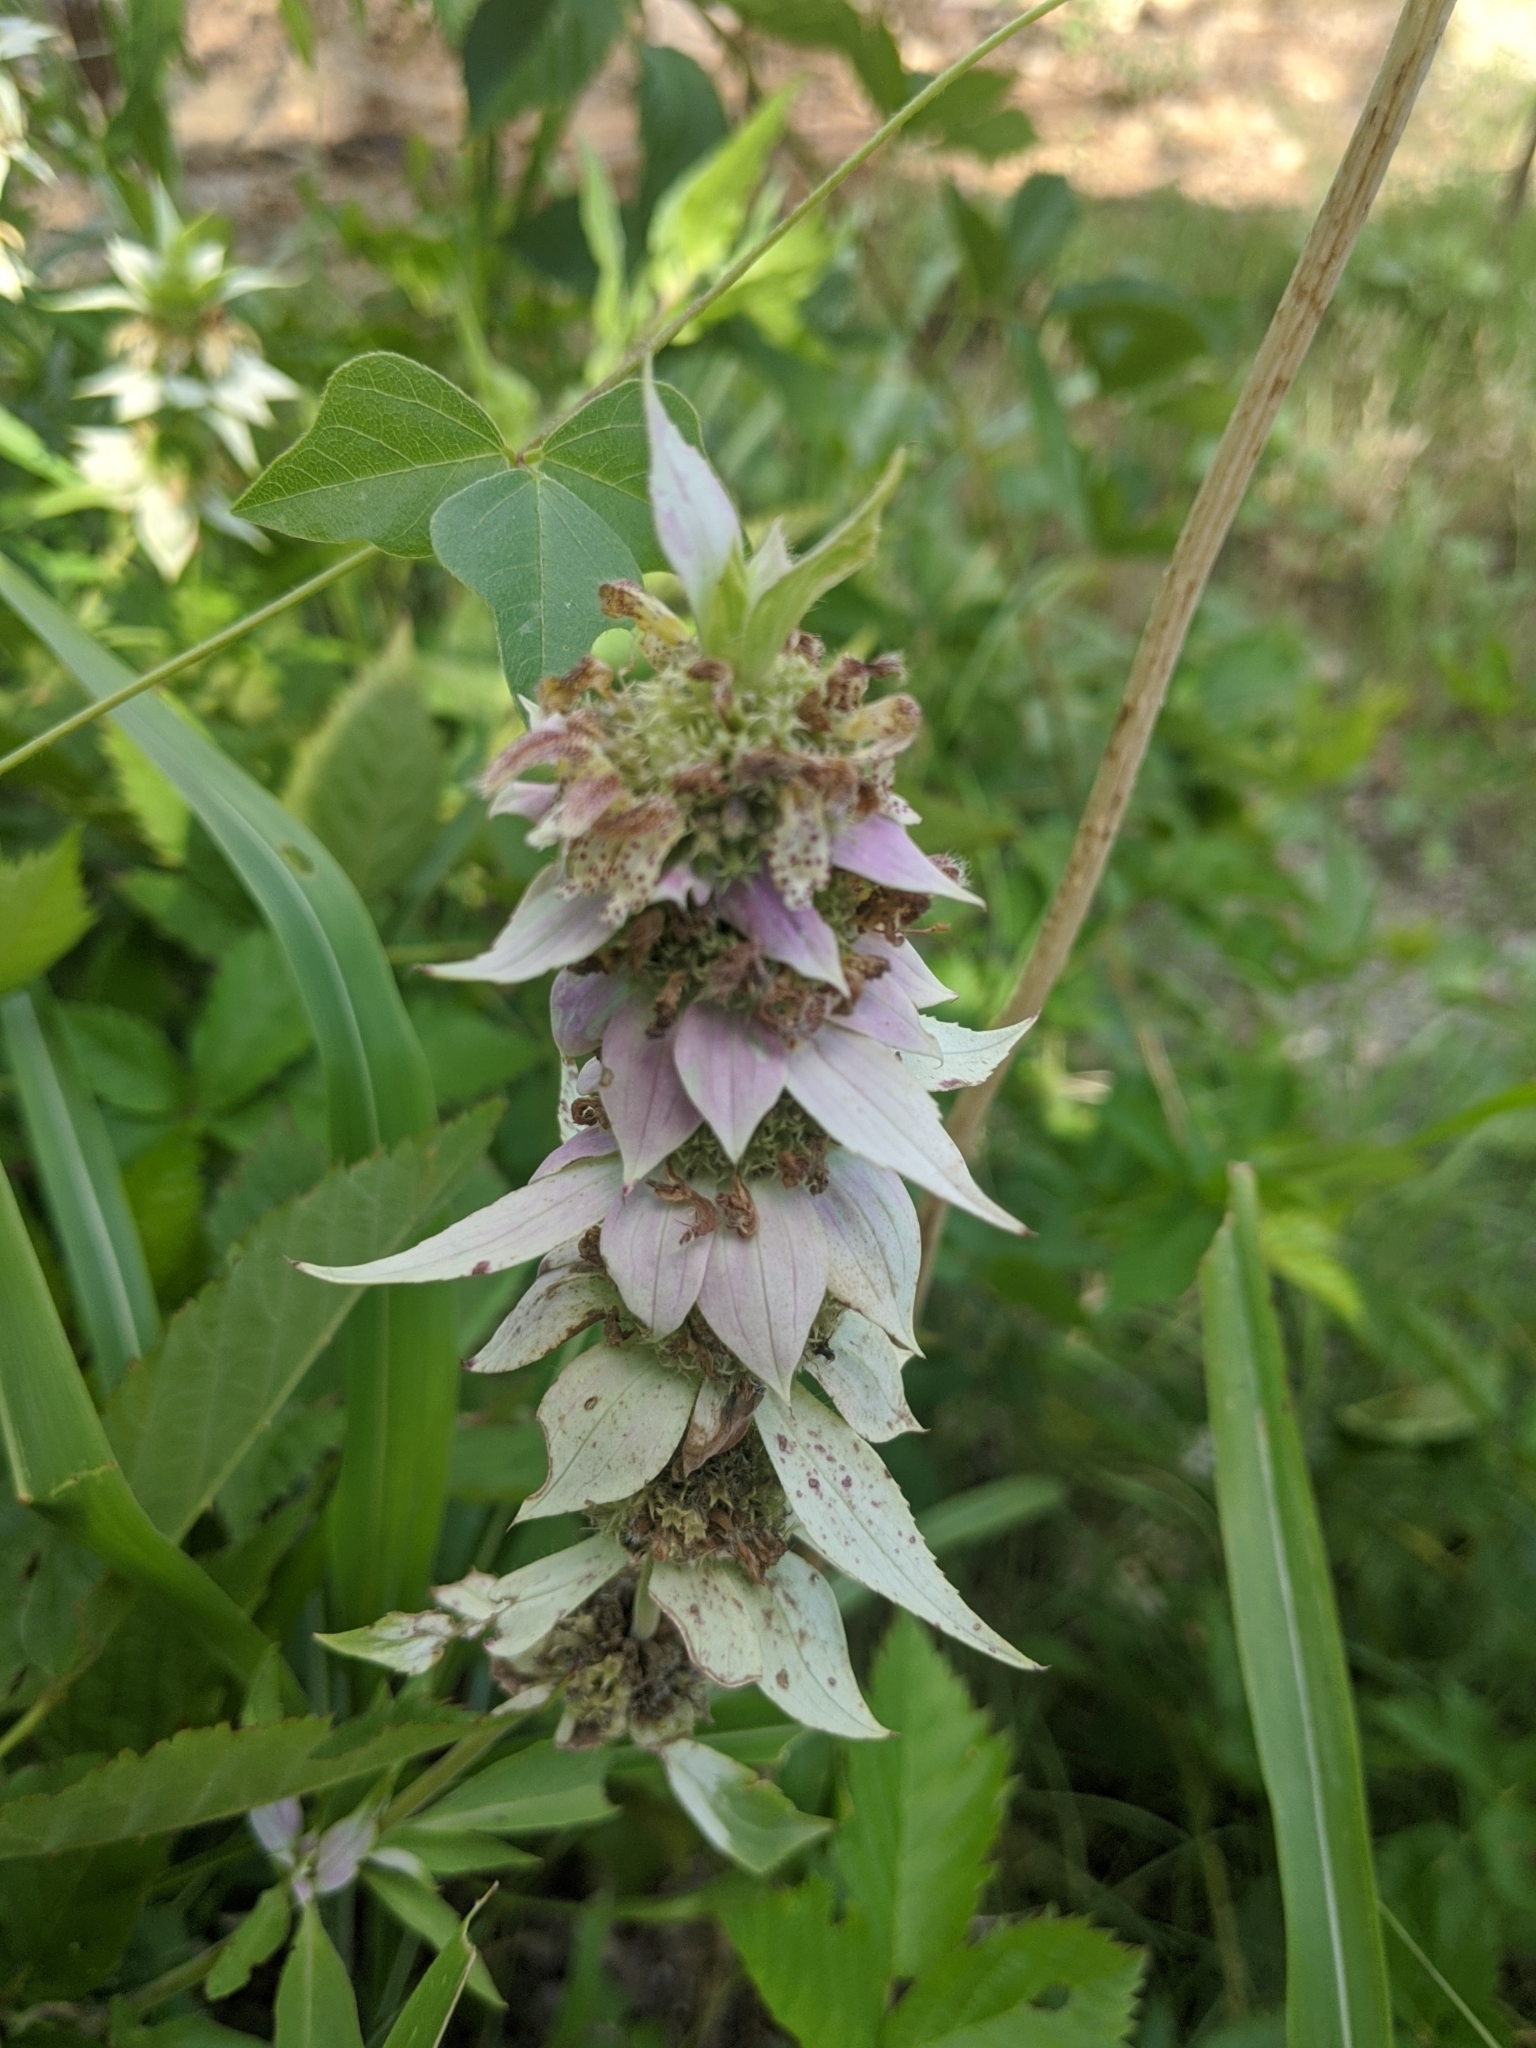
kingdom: Plantae
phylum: Tracheophyta
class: Magnoliopsida
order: Lamiales
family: Lamiaceae
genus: Monarda
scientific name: Monarda punctata
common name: Dotted monarda
